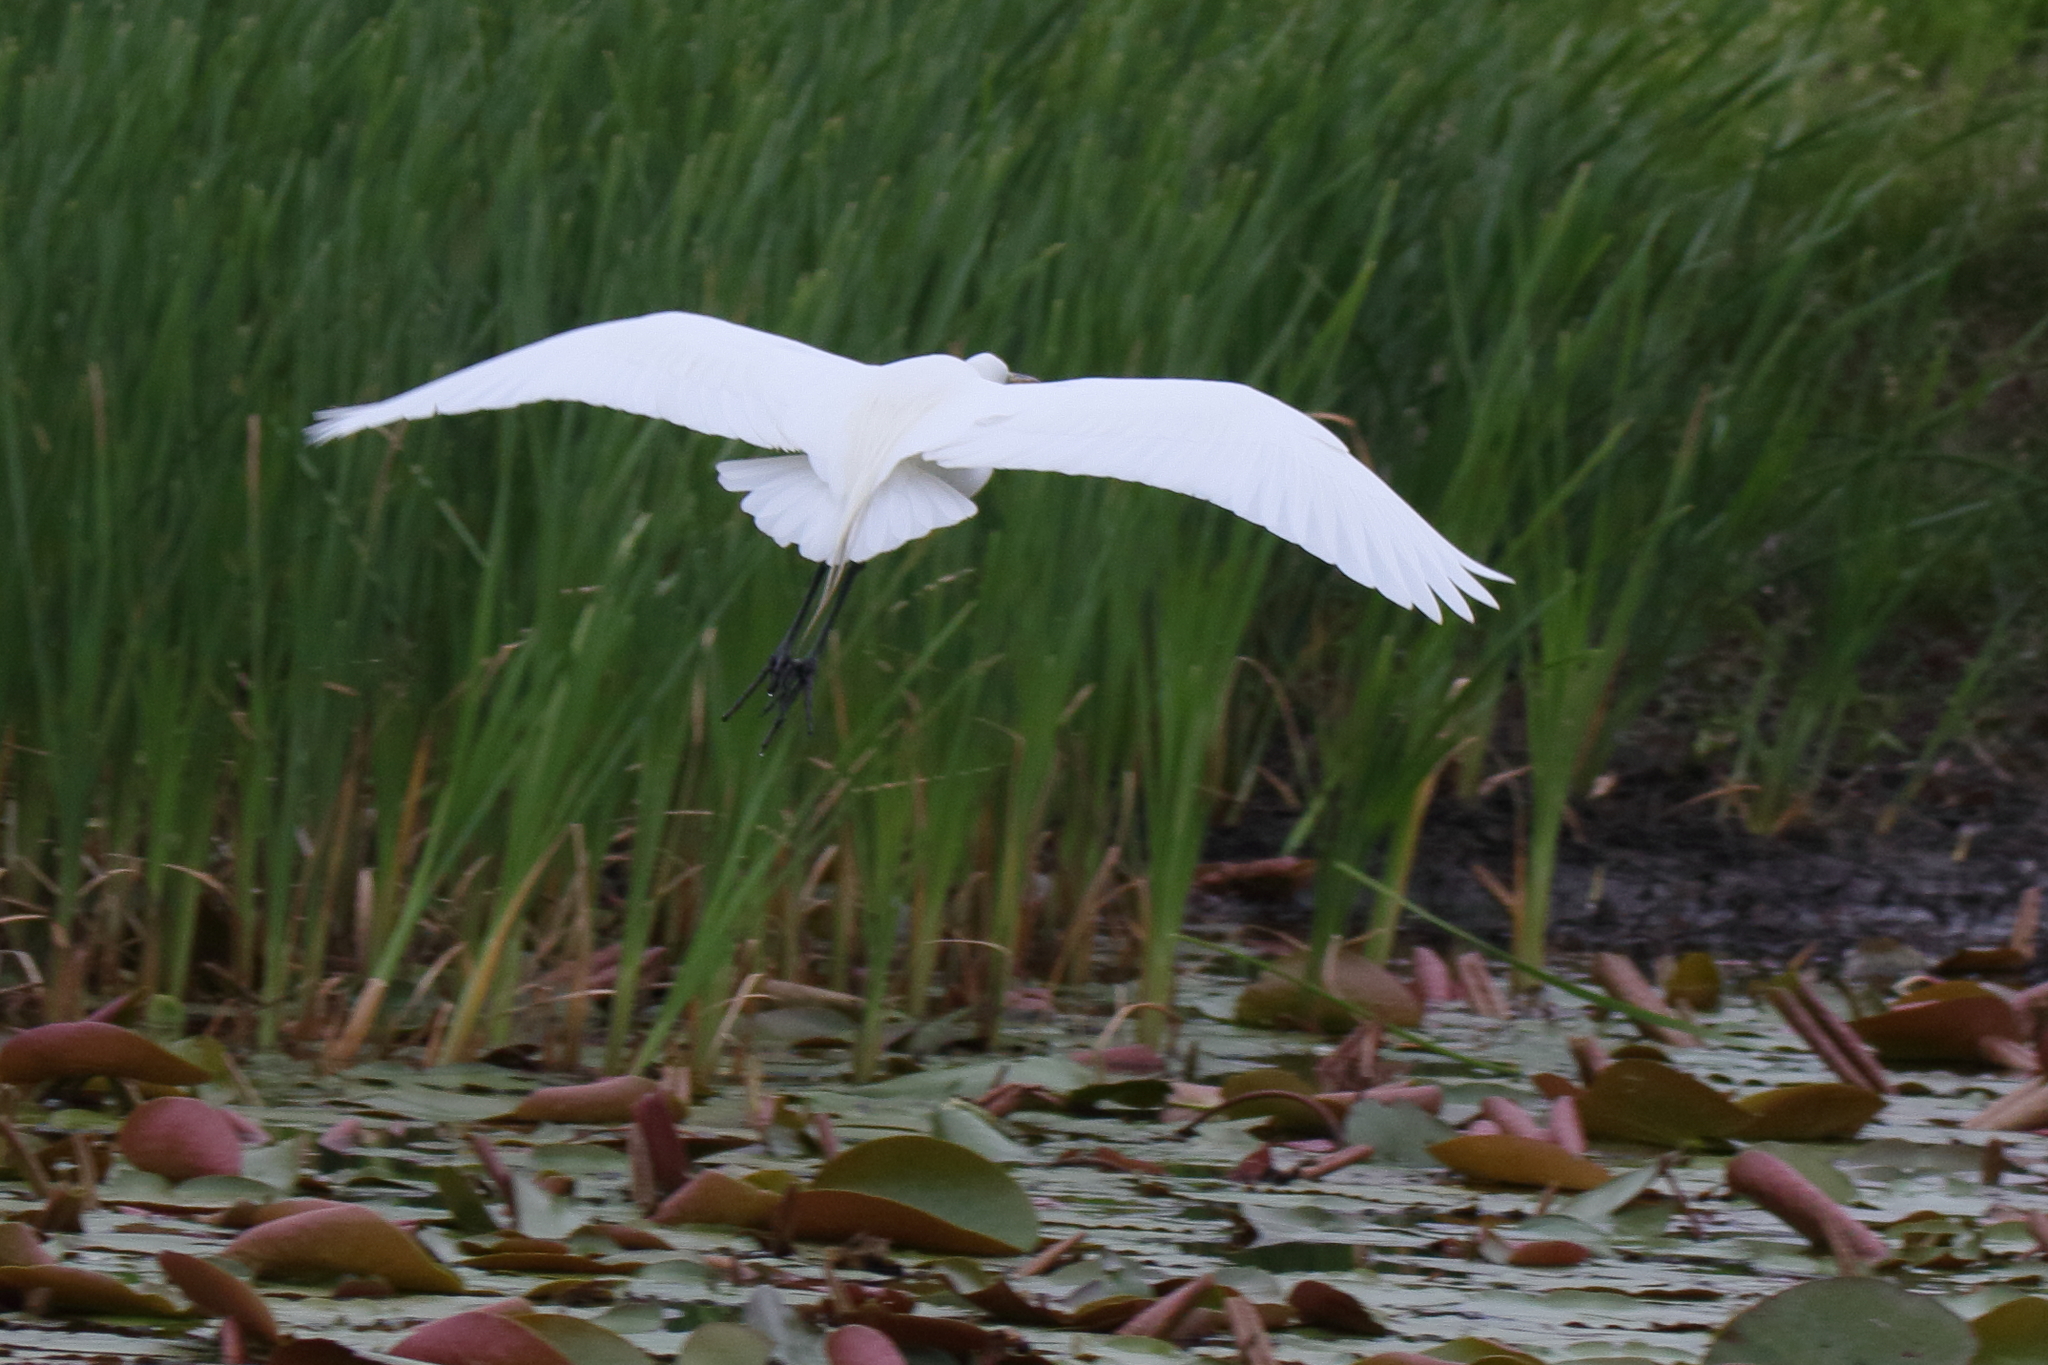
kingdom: Animalia
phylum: Chordata
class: Aves
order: Pelecaniformes
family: Ardeidae
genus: Ardea
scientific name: Ardea alba
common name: Great egret
